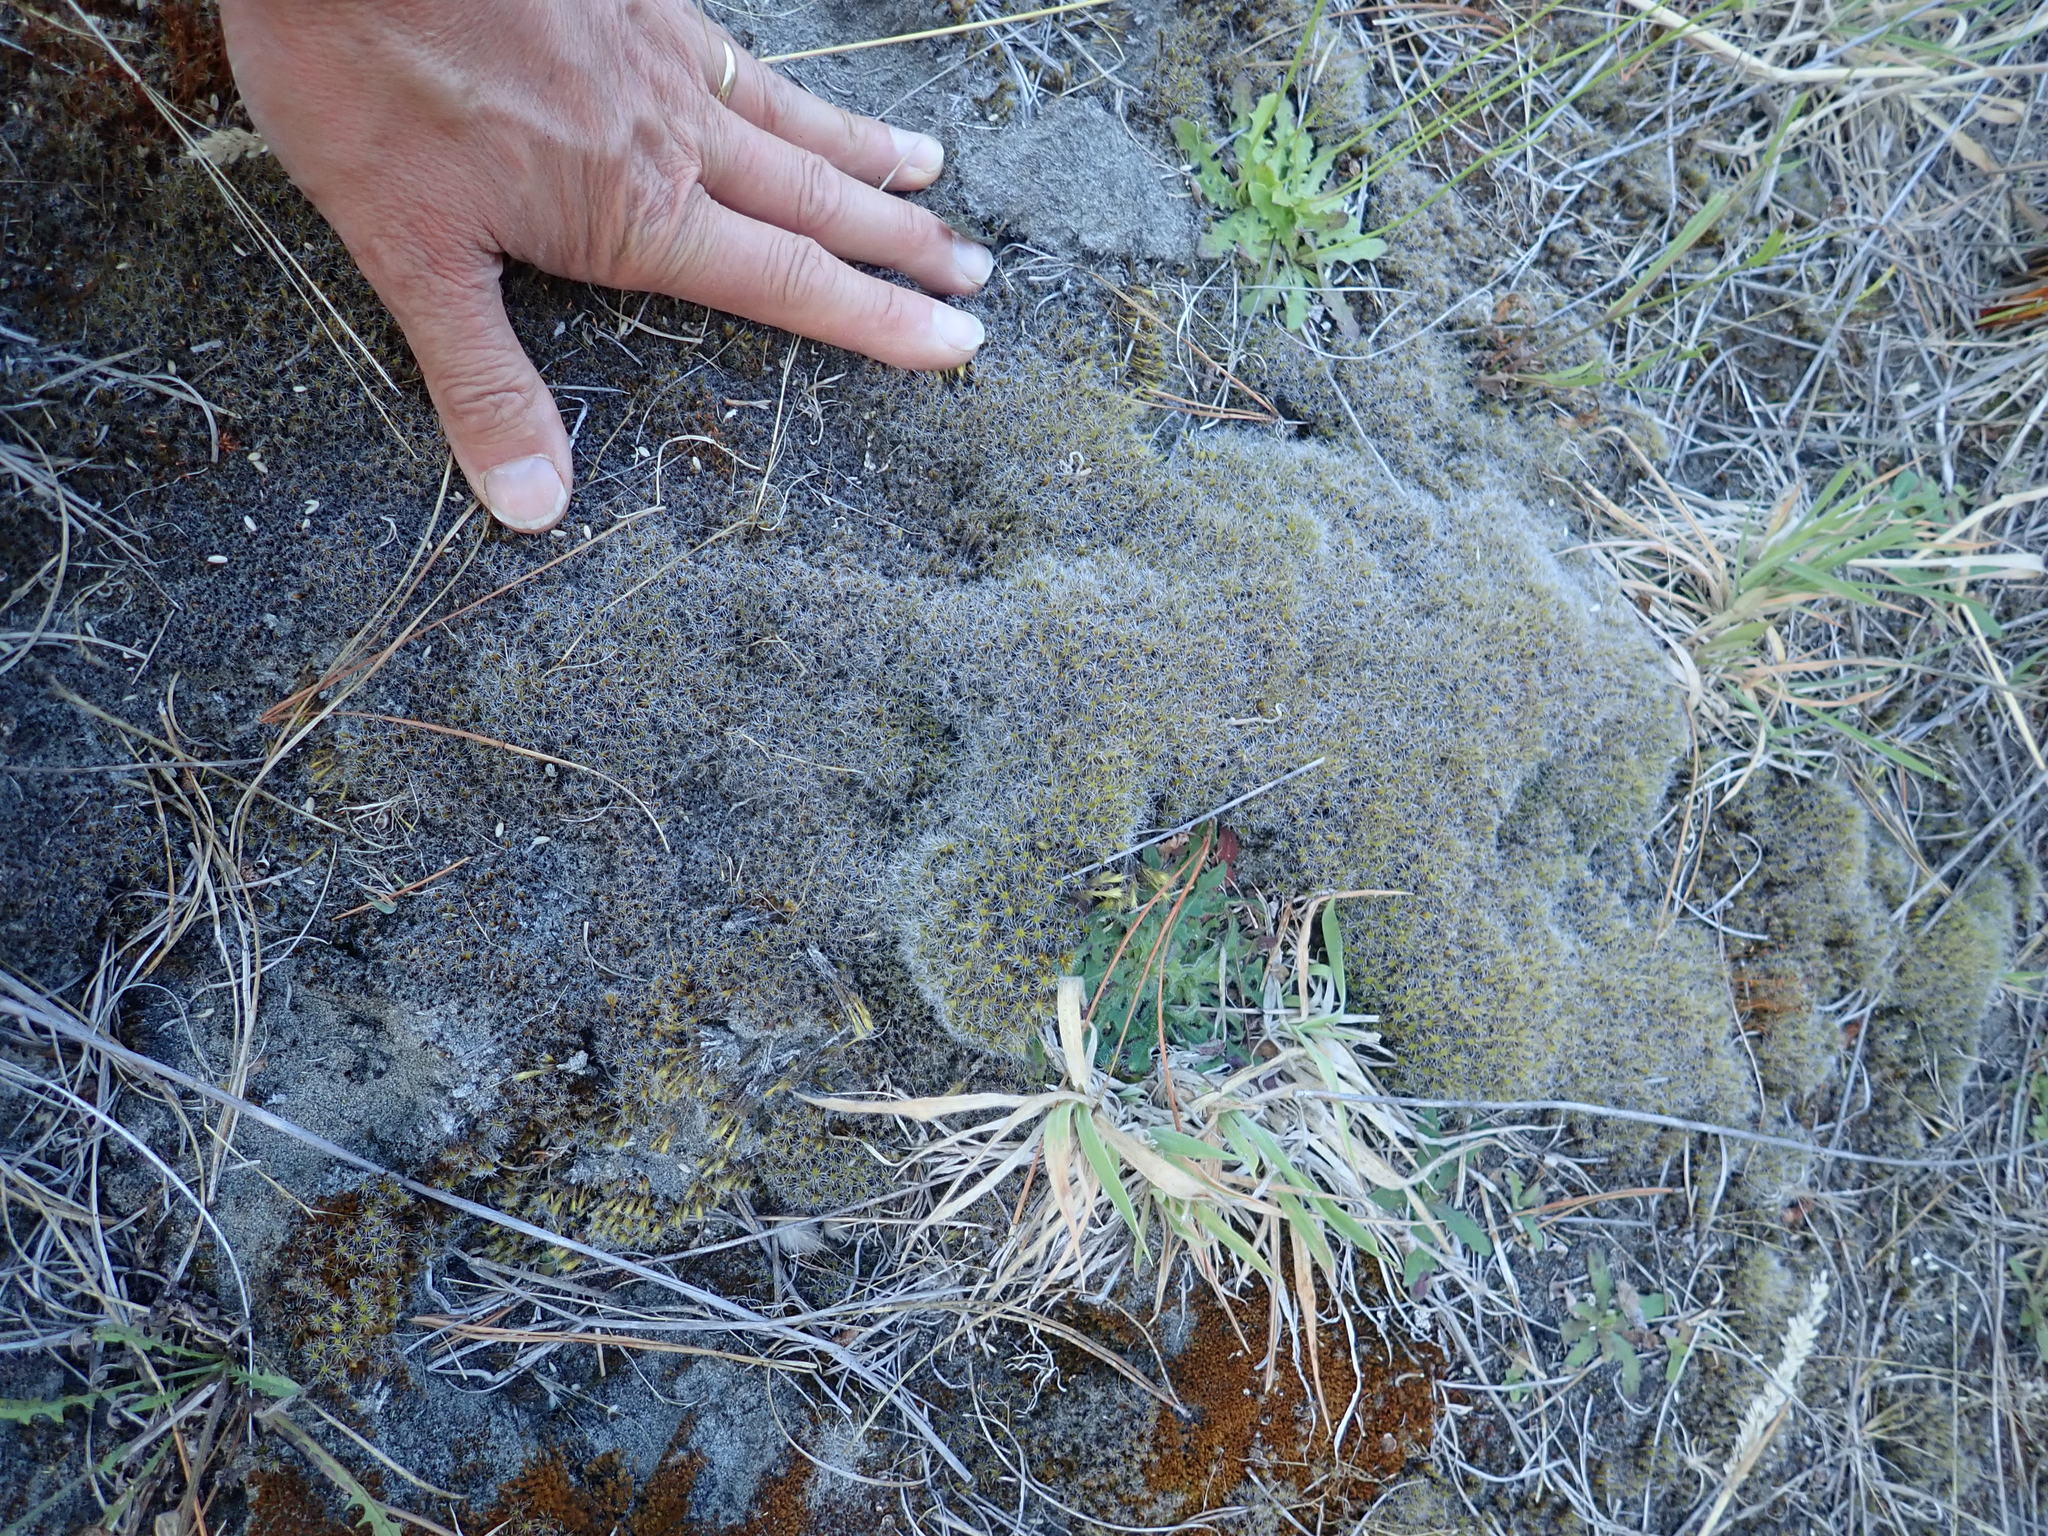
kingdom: Plantae
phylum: Bryophyta
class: Bryopsida
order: Dicranales
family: Leucobryaceae
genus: Campylopus
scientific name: Campylopus introflexus
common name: Heath star moss
